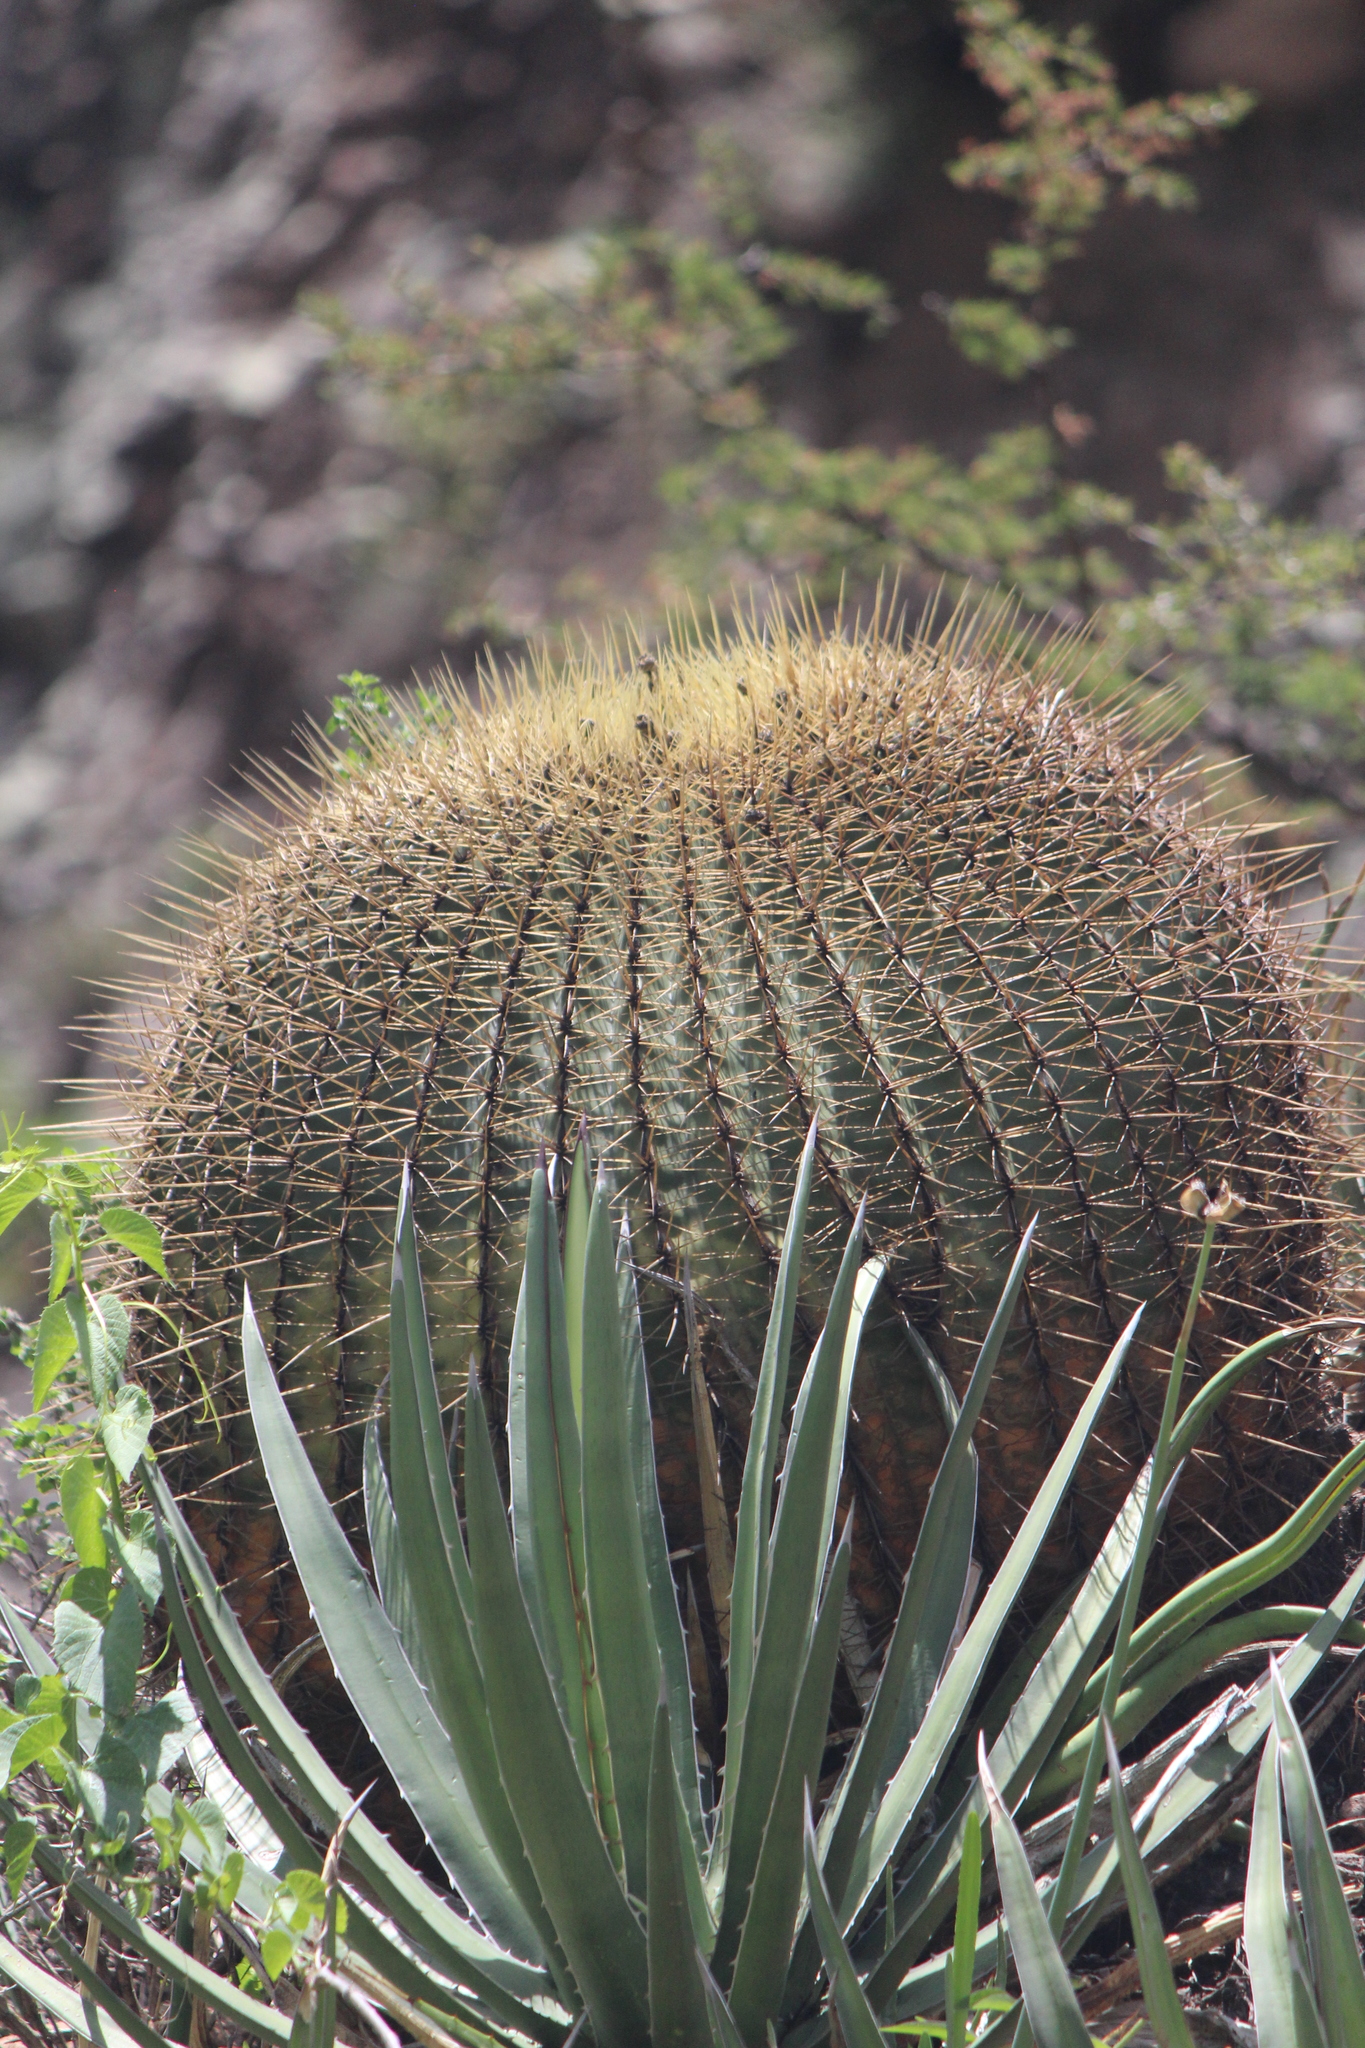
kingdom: Plantae
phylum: Tracheophyta
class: Magnoliopsida
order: Caryophyllales
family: Cactaceae
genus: Bisnaga
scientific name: Bisnaga histrix
